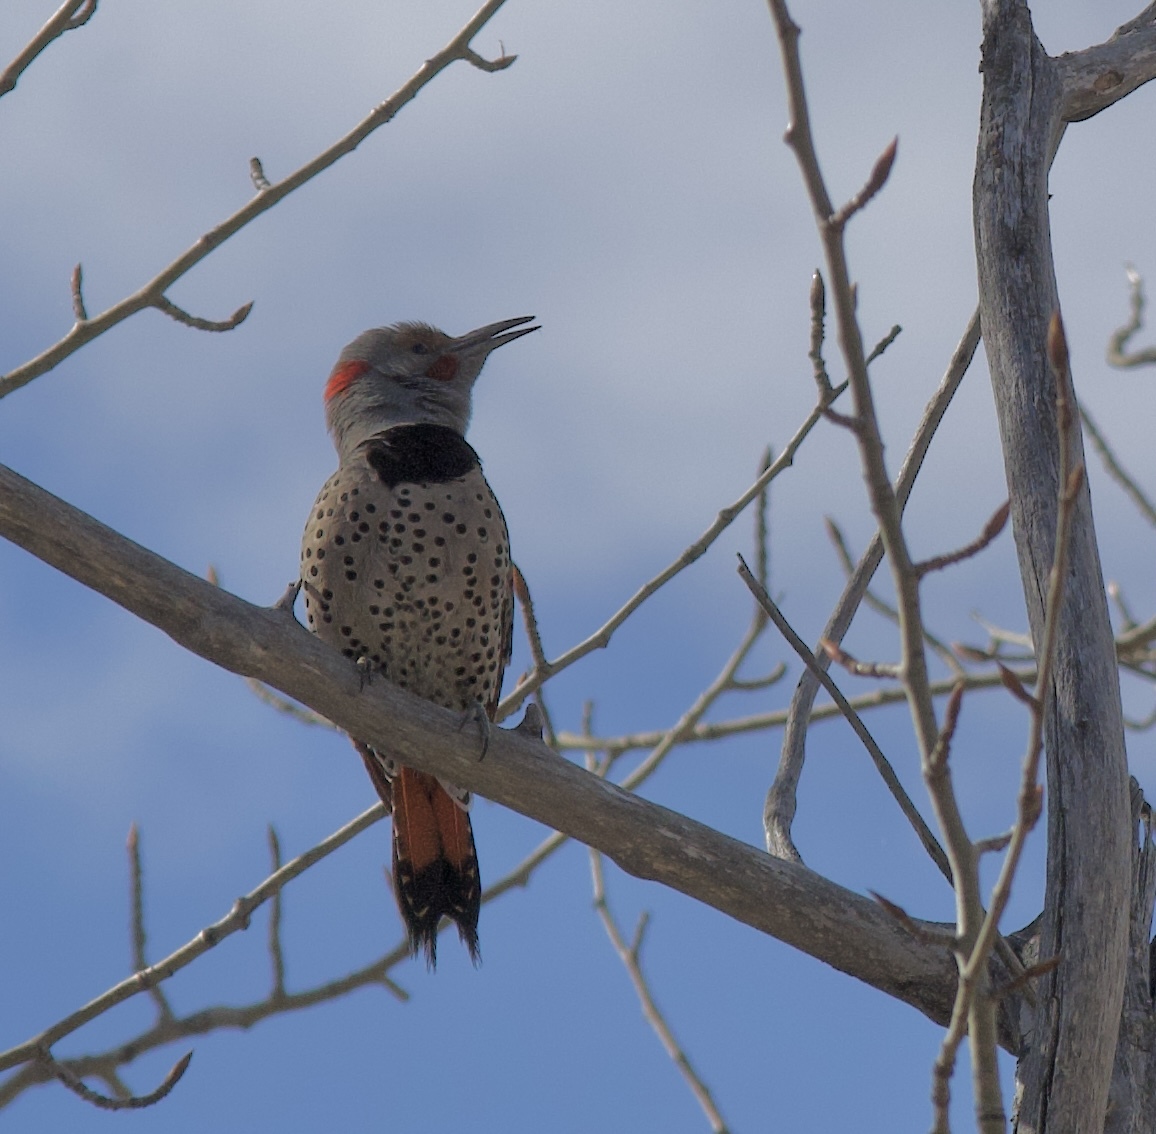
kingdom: Animalia
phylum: Chordata
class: Aves
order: Piciformes
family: Picidae
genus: Colaptes
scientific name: Colaptes auratus
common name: Northern flicker
